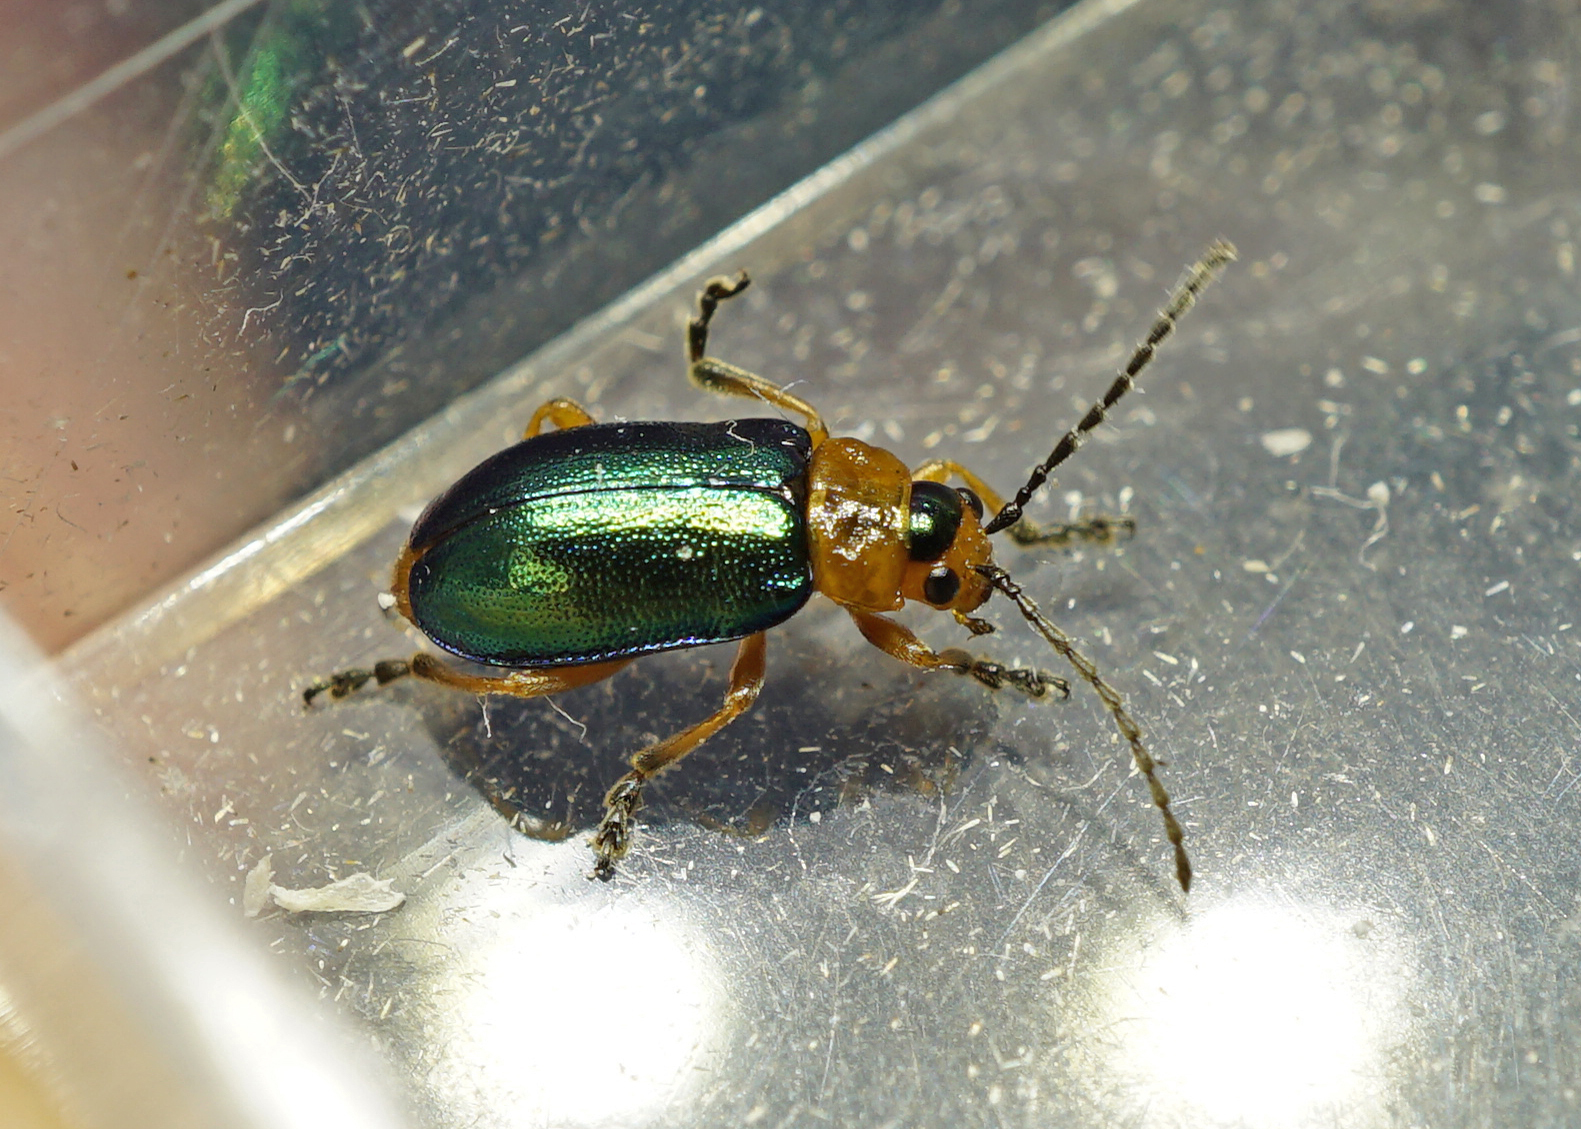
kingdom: Animalia
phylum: Arthropoda
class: Insecta
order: Coleoptera
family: Chrysomelidae
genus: Sermylassa
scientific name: Sermylassa halensis
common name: Leaf beetle
